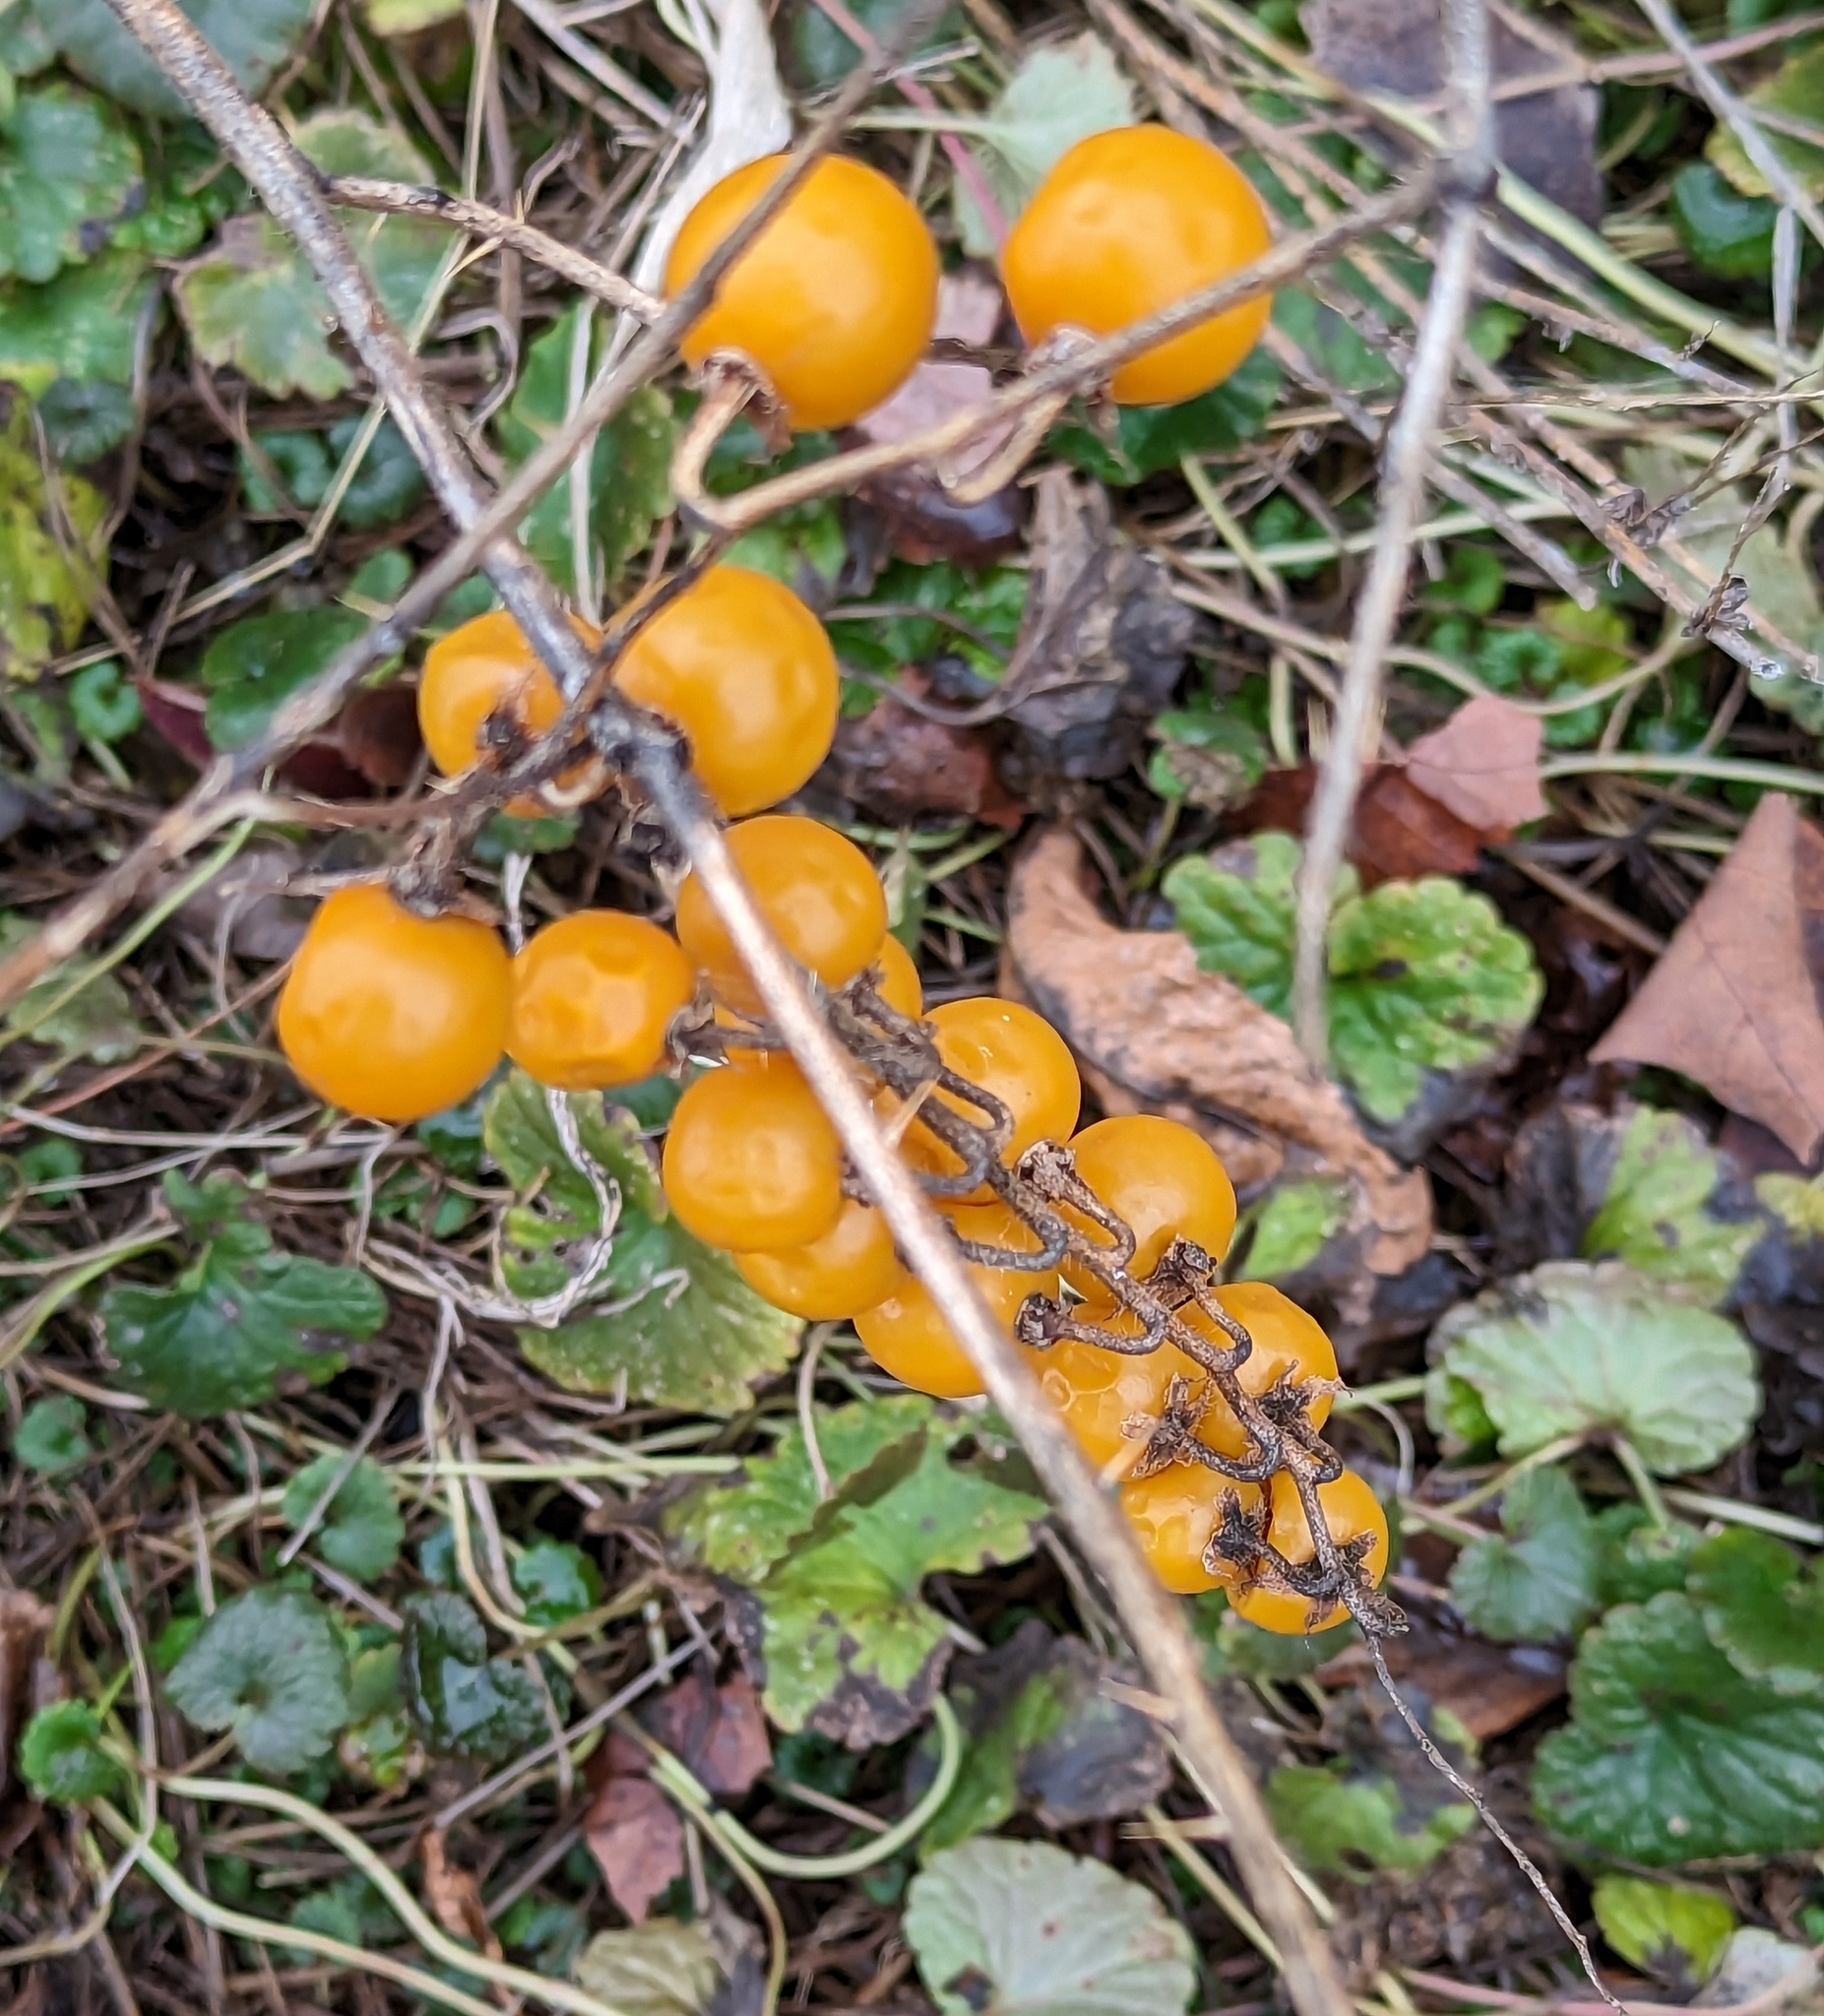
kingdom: Plantae
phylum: Tracheophyta
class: Magnoliopsida
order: Solanales
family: Solanaceae
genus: Solanum
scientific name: Solanum carolinense
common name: Horse-nettle
